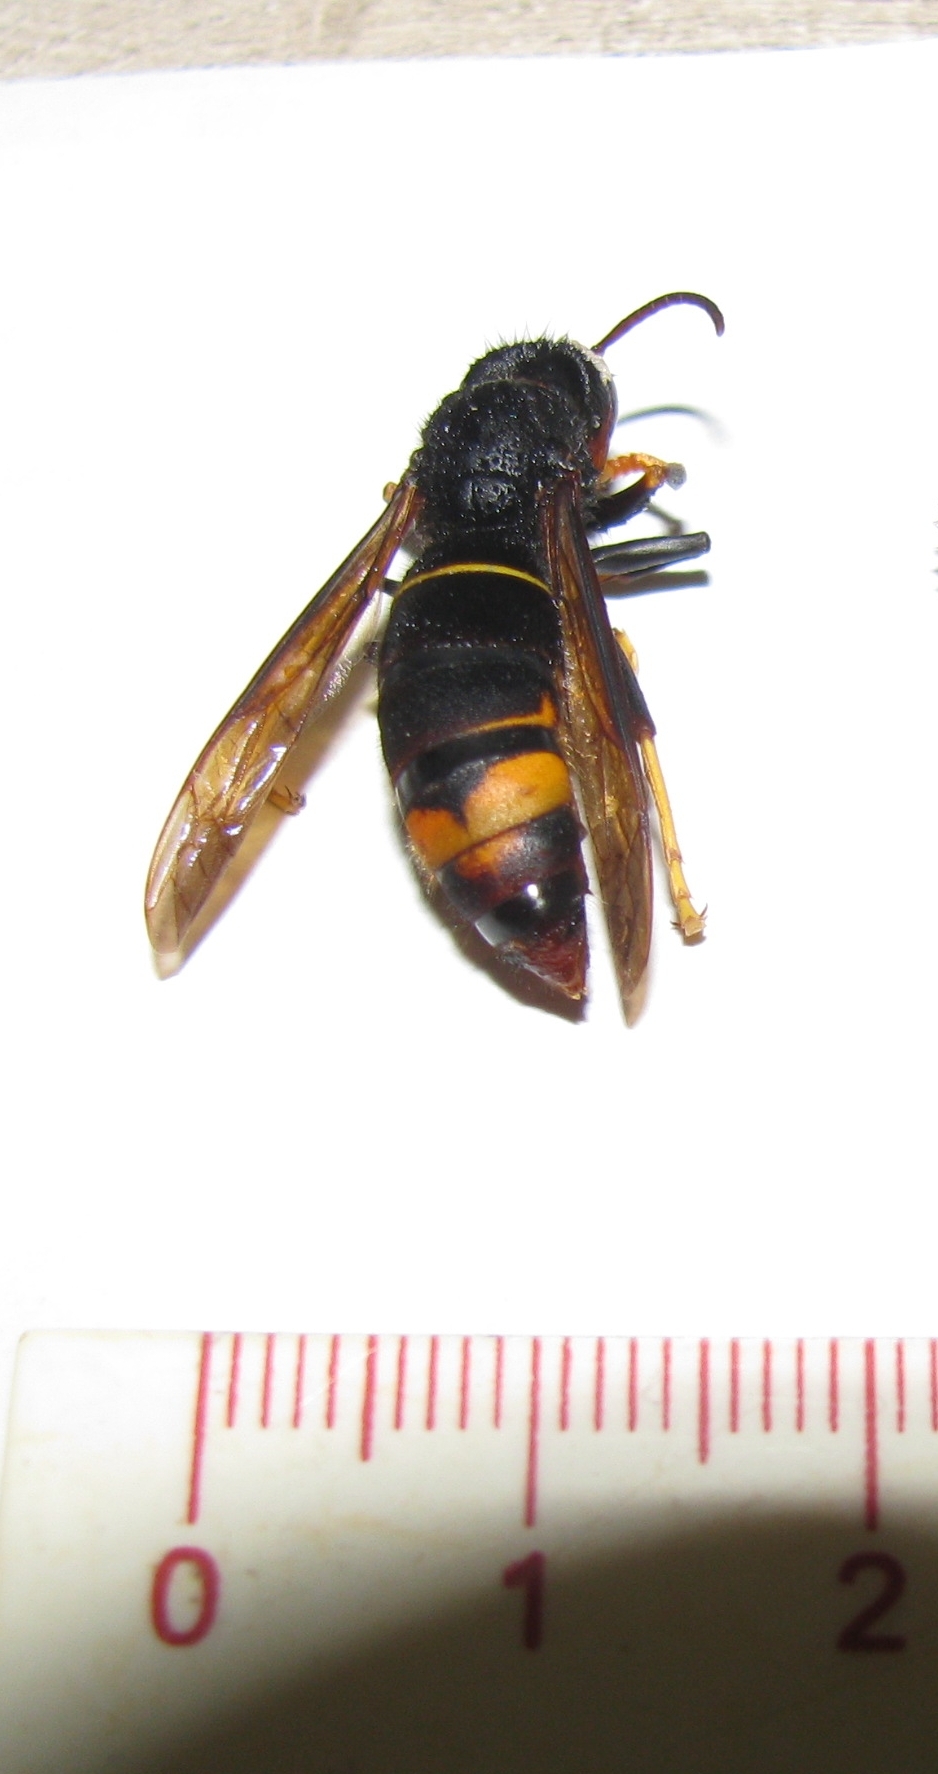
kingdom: Animalia
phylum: Arthropoda
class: Insecta
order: Hymenoptera
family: Vespidae
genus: Vespa
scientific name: Vespa velutina
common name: Asian hornet
